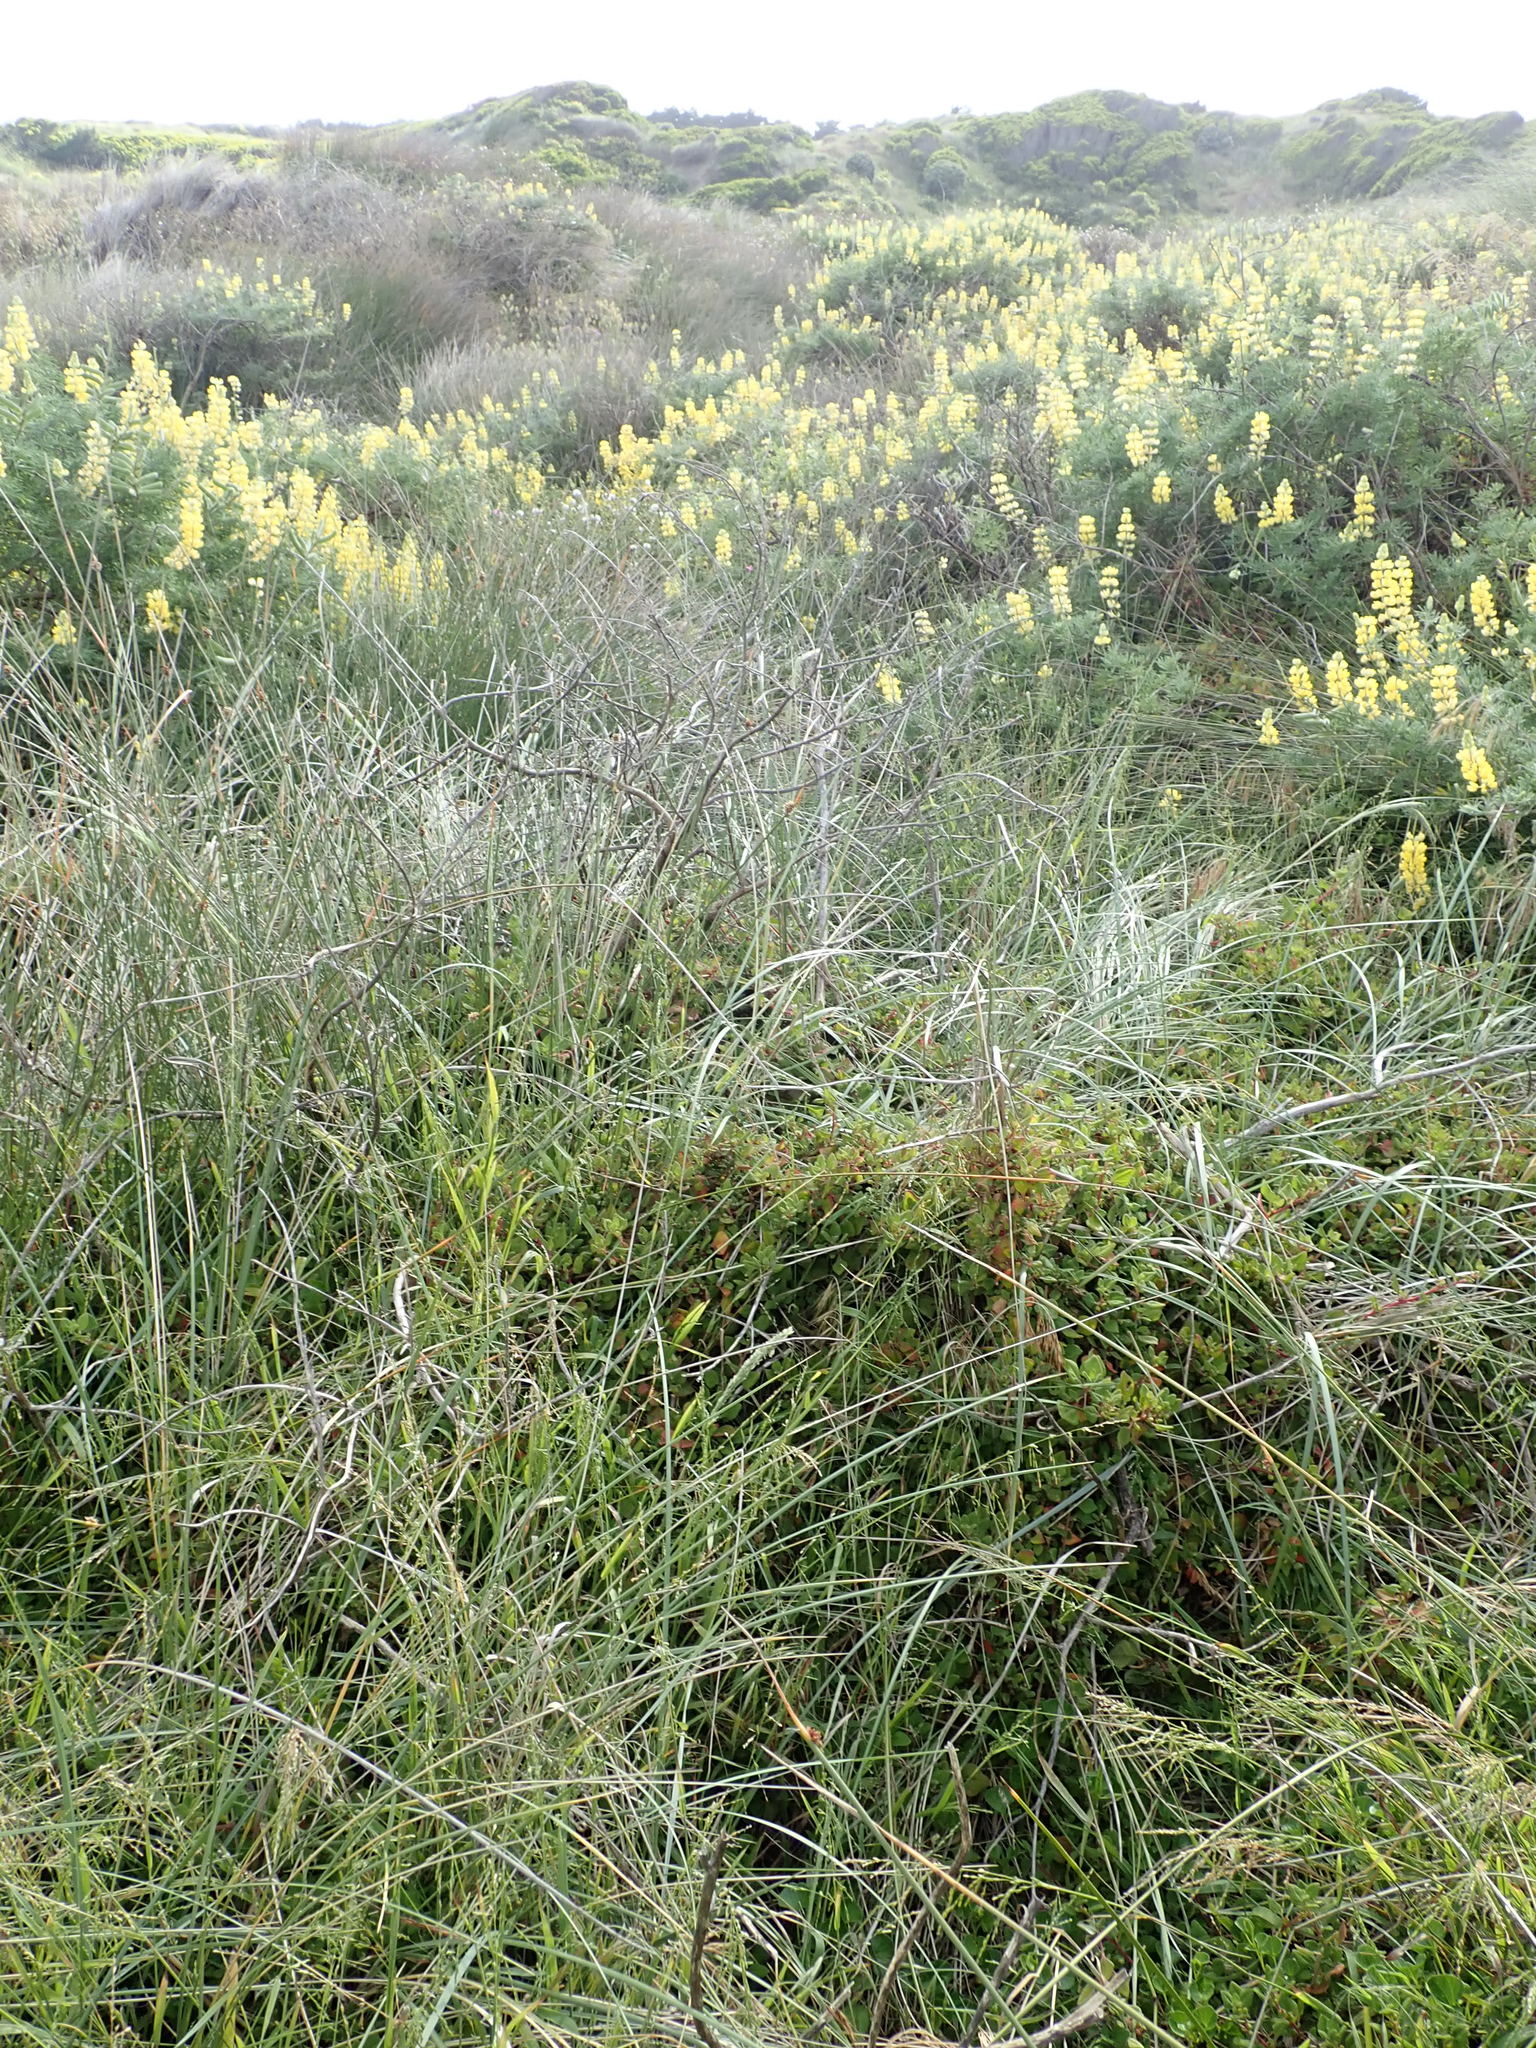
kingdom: Plantae
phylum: Tracheophyta
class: Magnoliopsida
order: Caryophyllales
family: Aizoaceae
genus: Tetragonia
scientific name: Tetragonia implexicoma
